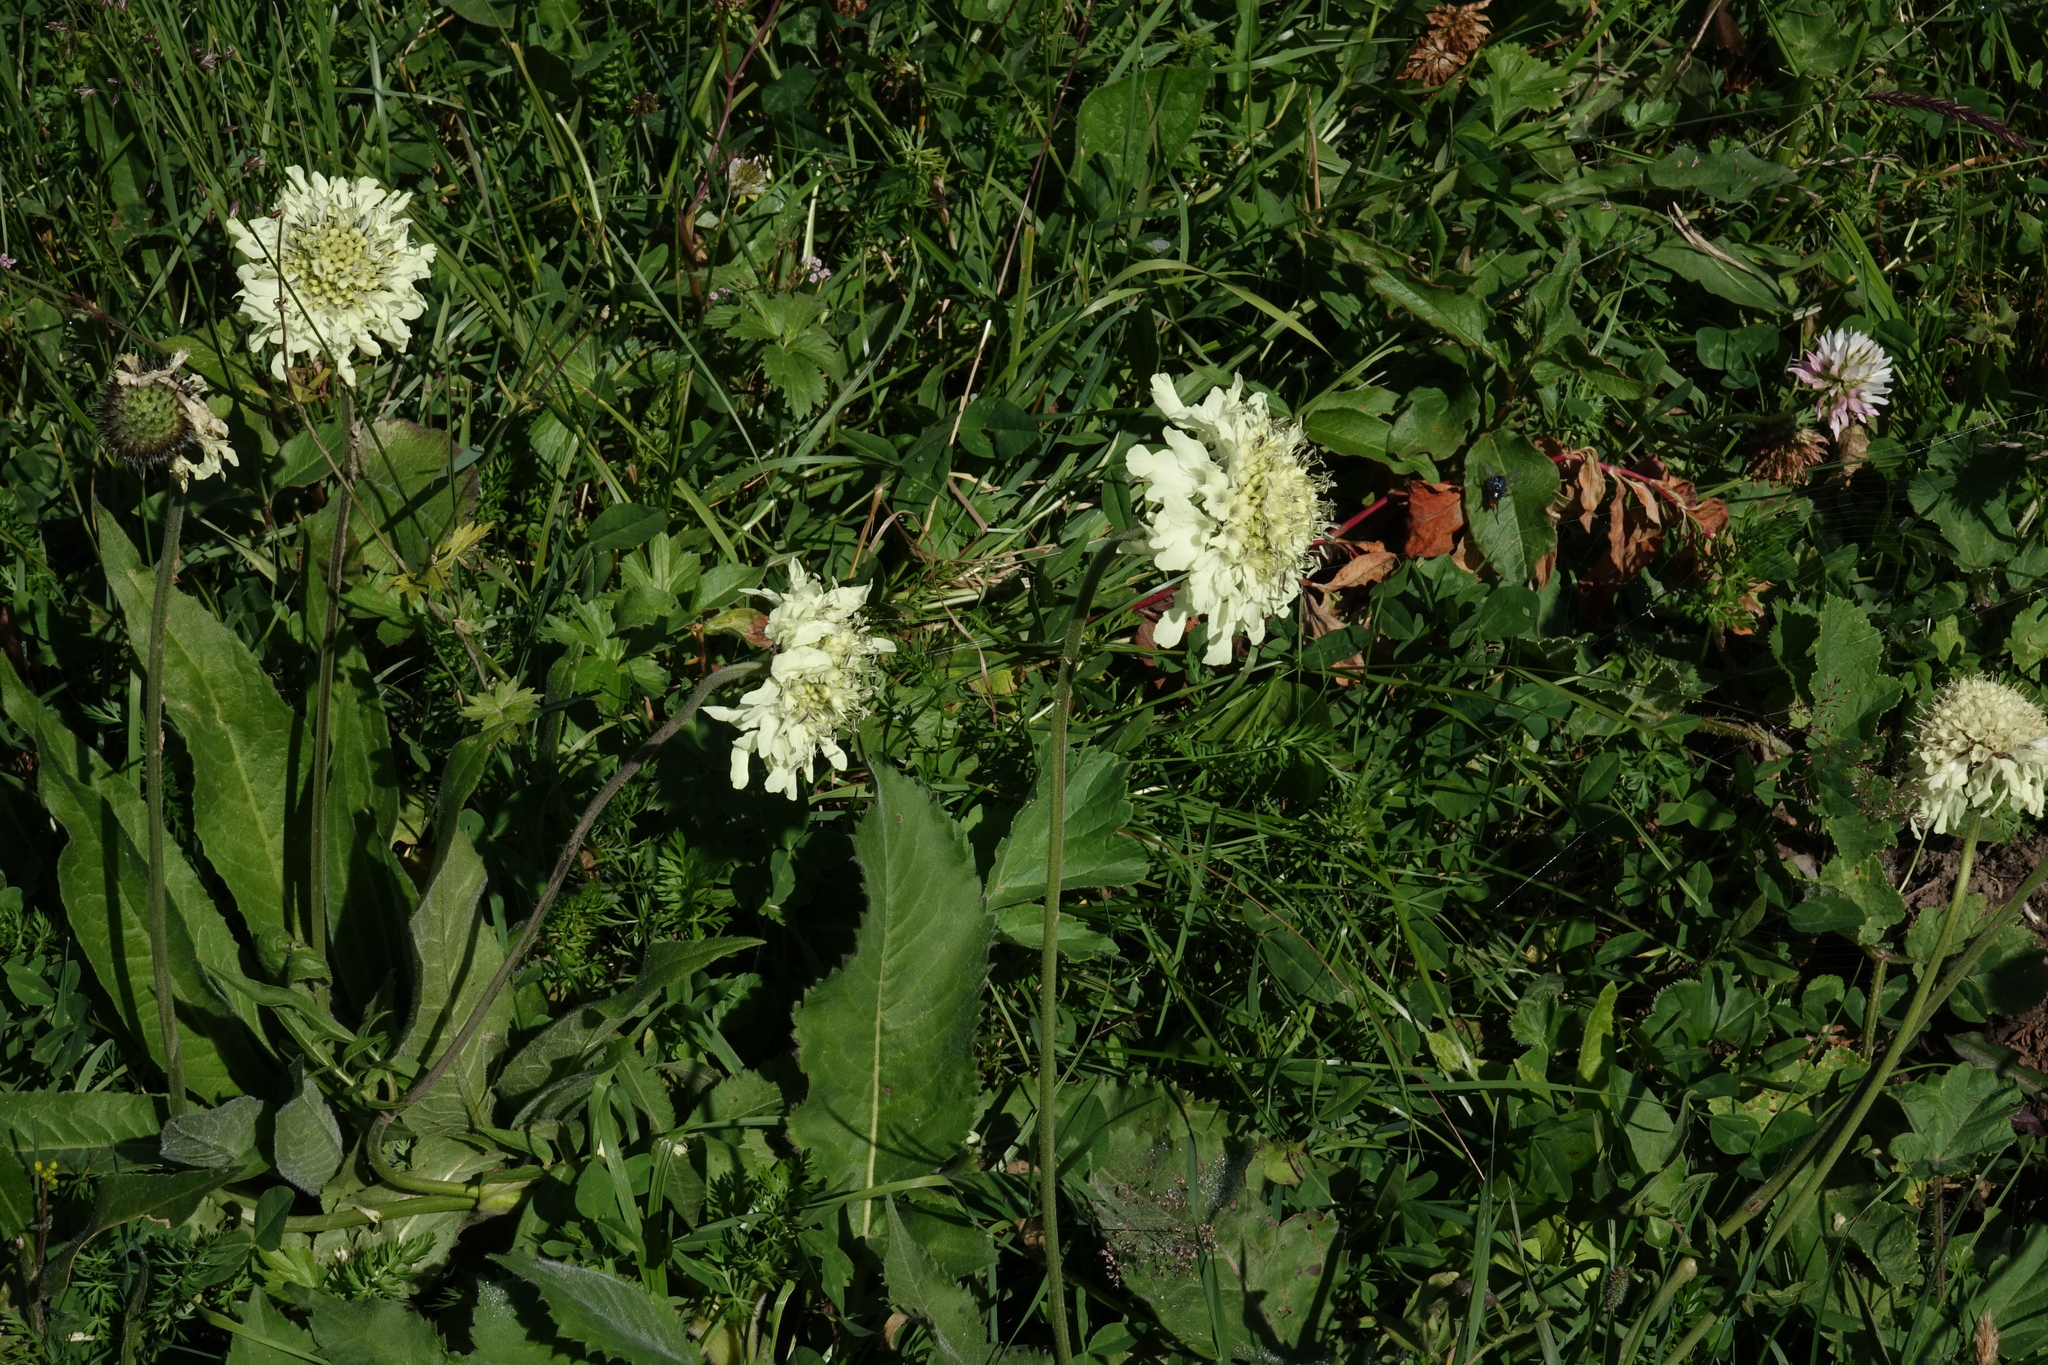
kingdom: Plantae
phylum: Tracheophyta
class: Magnoliopsida
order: Dipsacales
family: Caprifoliaceae
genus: Cephalaria
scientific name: Cephalaria gigantea
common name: Tatarian cephalaria
